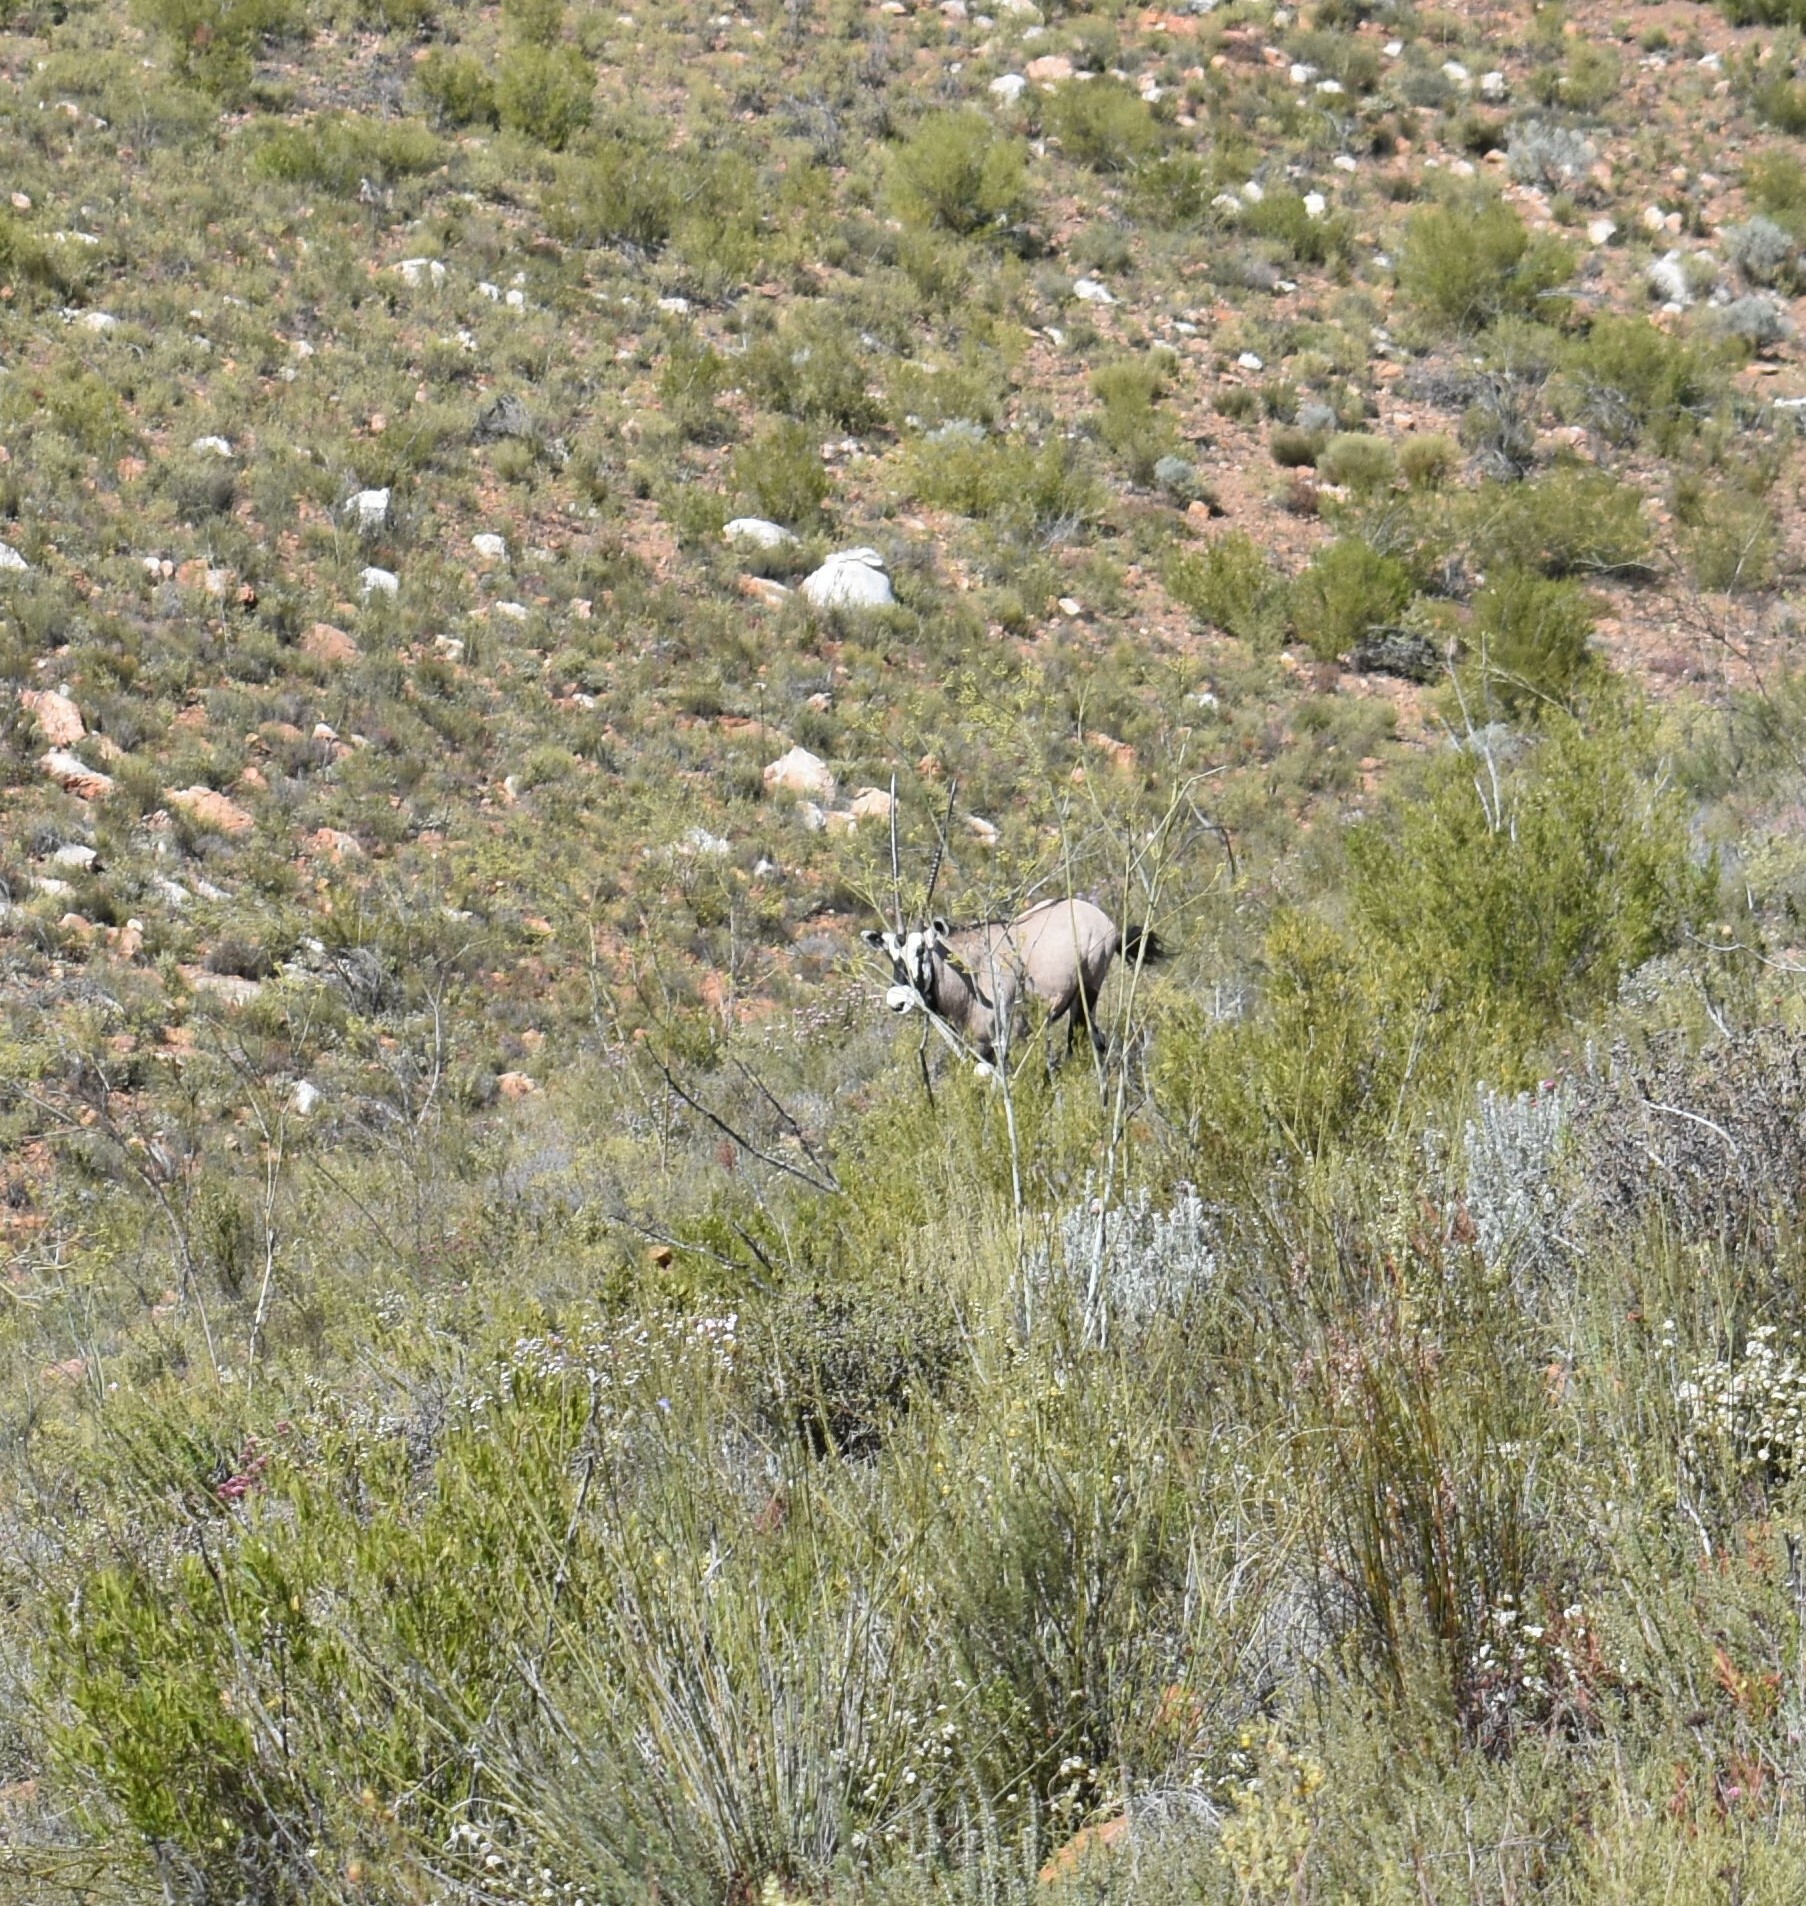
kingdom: Animalia
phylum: Chordata
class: Mammalia
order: Artiodactyla
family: Bovidae
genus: Oryx
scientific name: Oryx gazella
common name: Gemsbok
